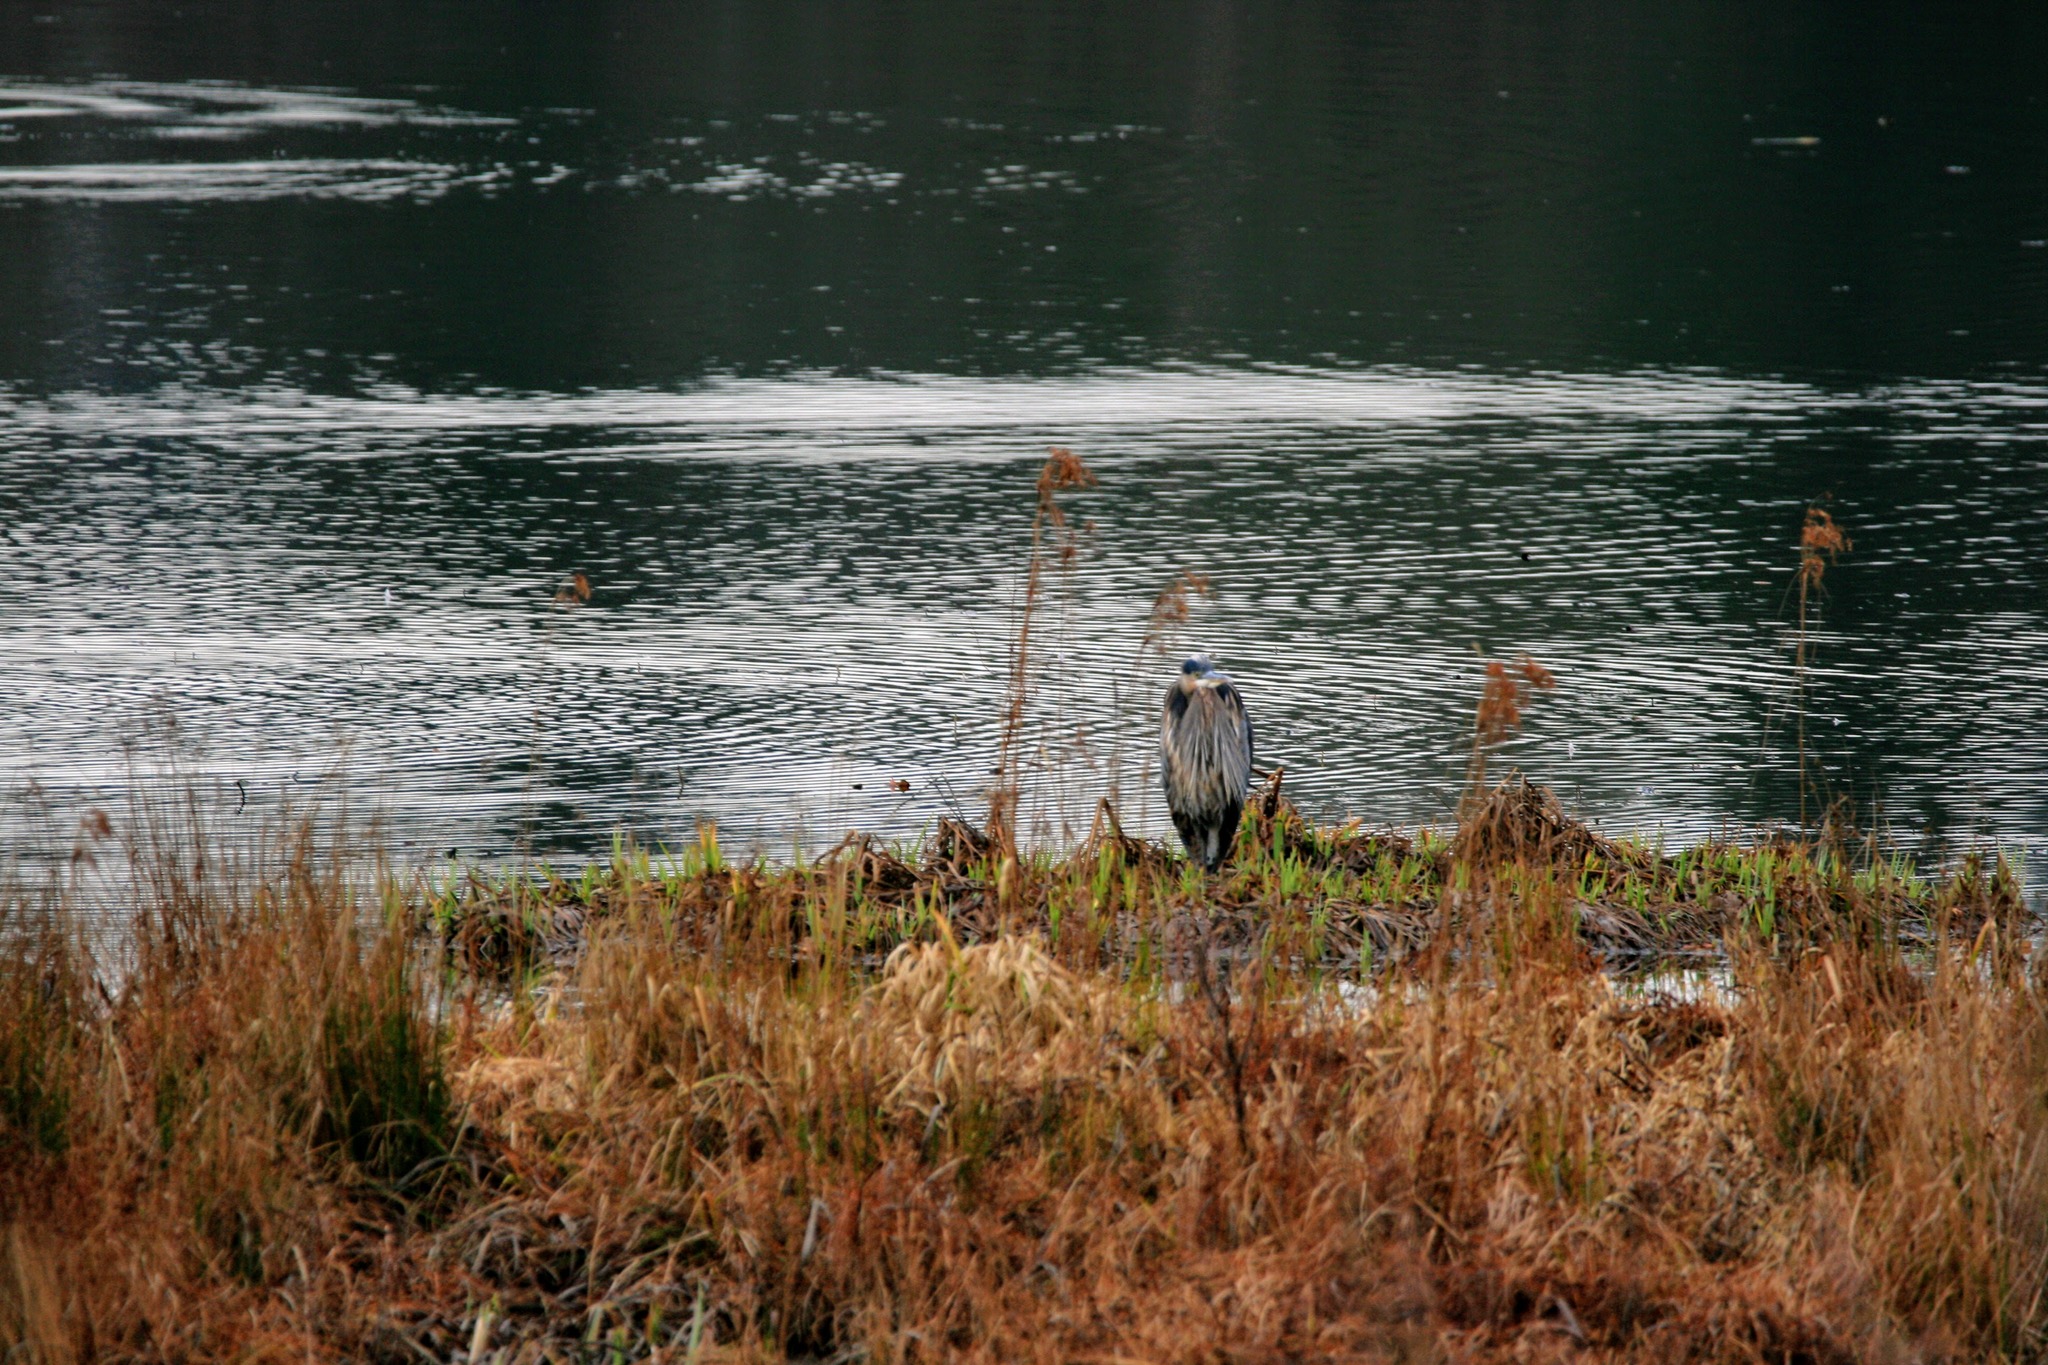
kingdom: Animalia
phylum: Chordata
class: Aves
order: Pelecaniformes
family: Ardeidae
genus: Ardea
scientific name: Ardea herodias
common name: Great blue heron
